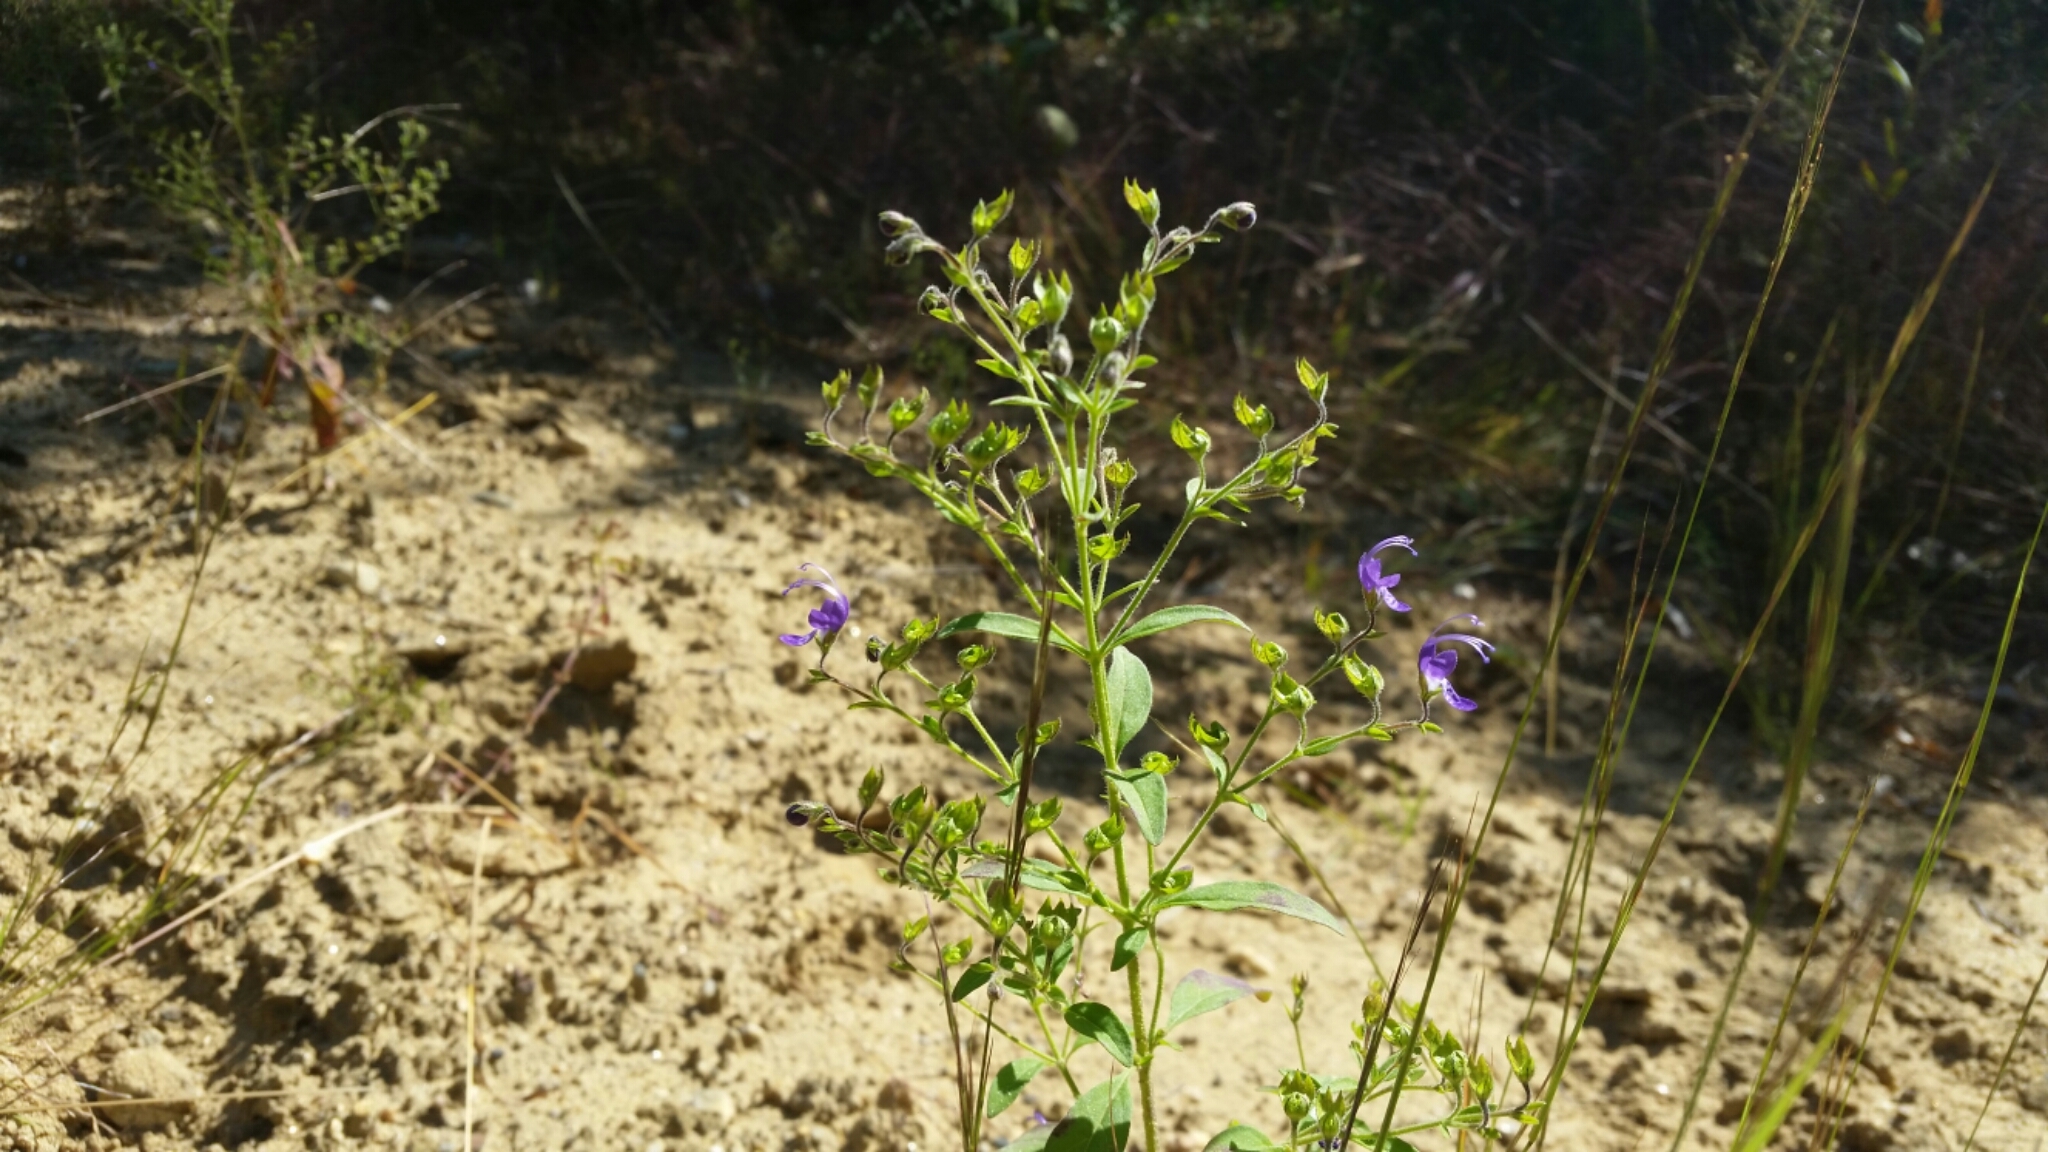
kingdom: Plantae
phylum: Tracheophyta
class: Magnoliopsida
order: Lamiales
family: Lamiaceae
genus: Trichostema
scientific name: Trichostema dichotomum
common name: Bastard pennyroyal
